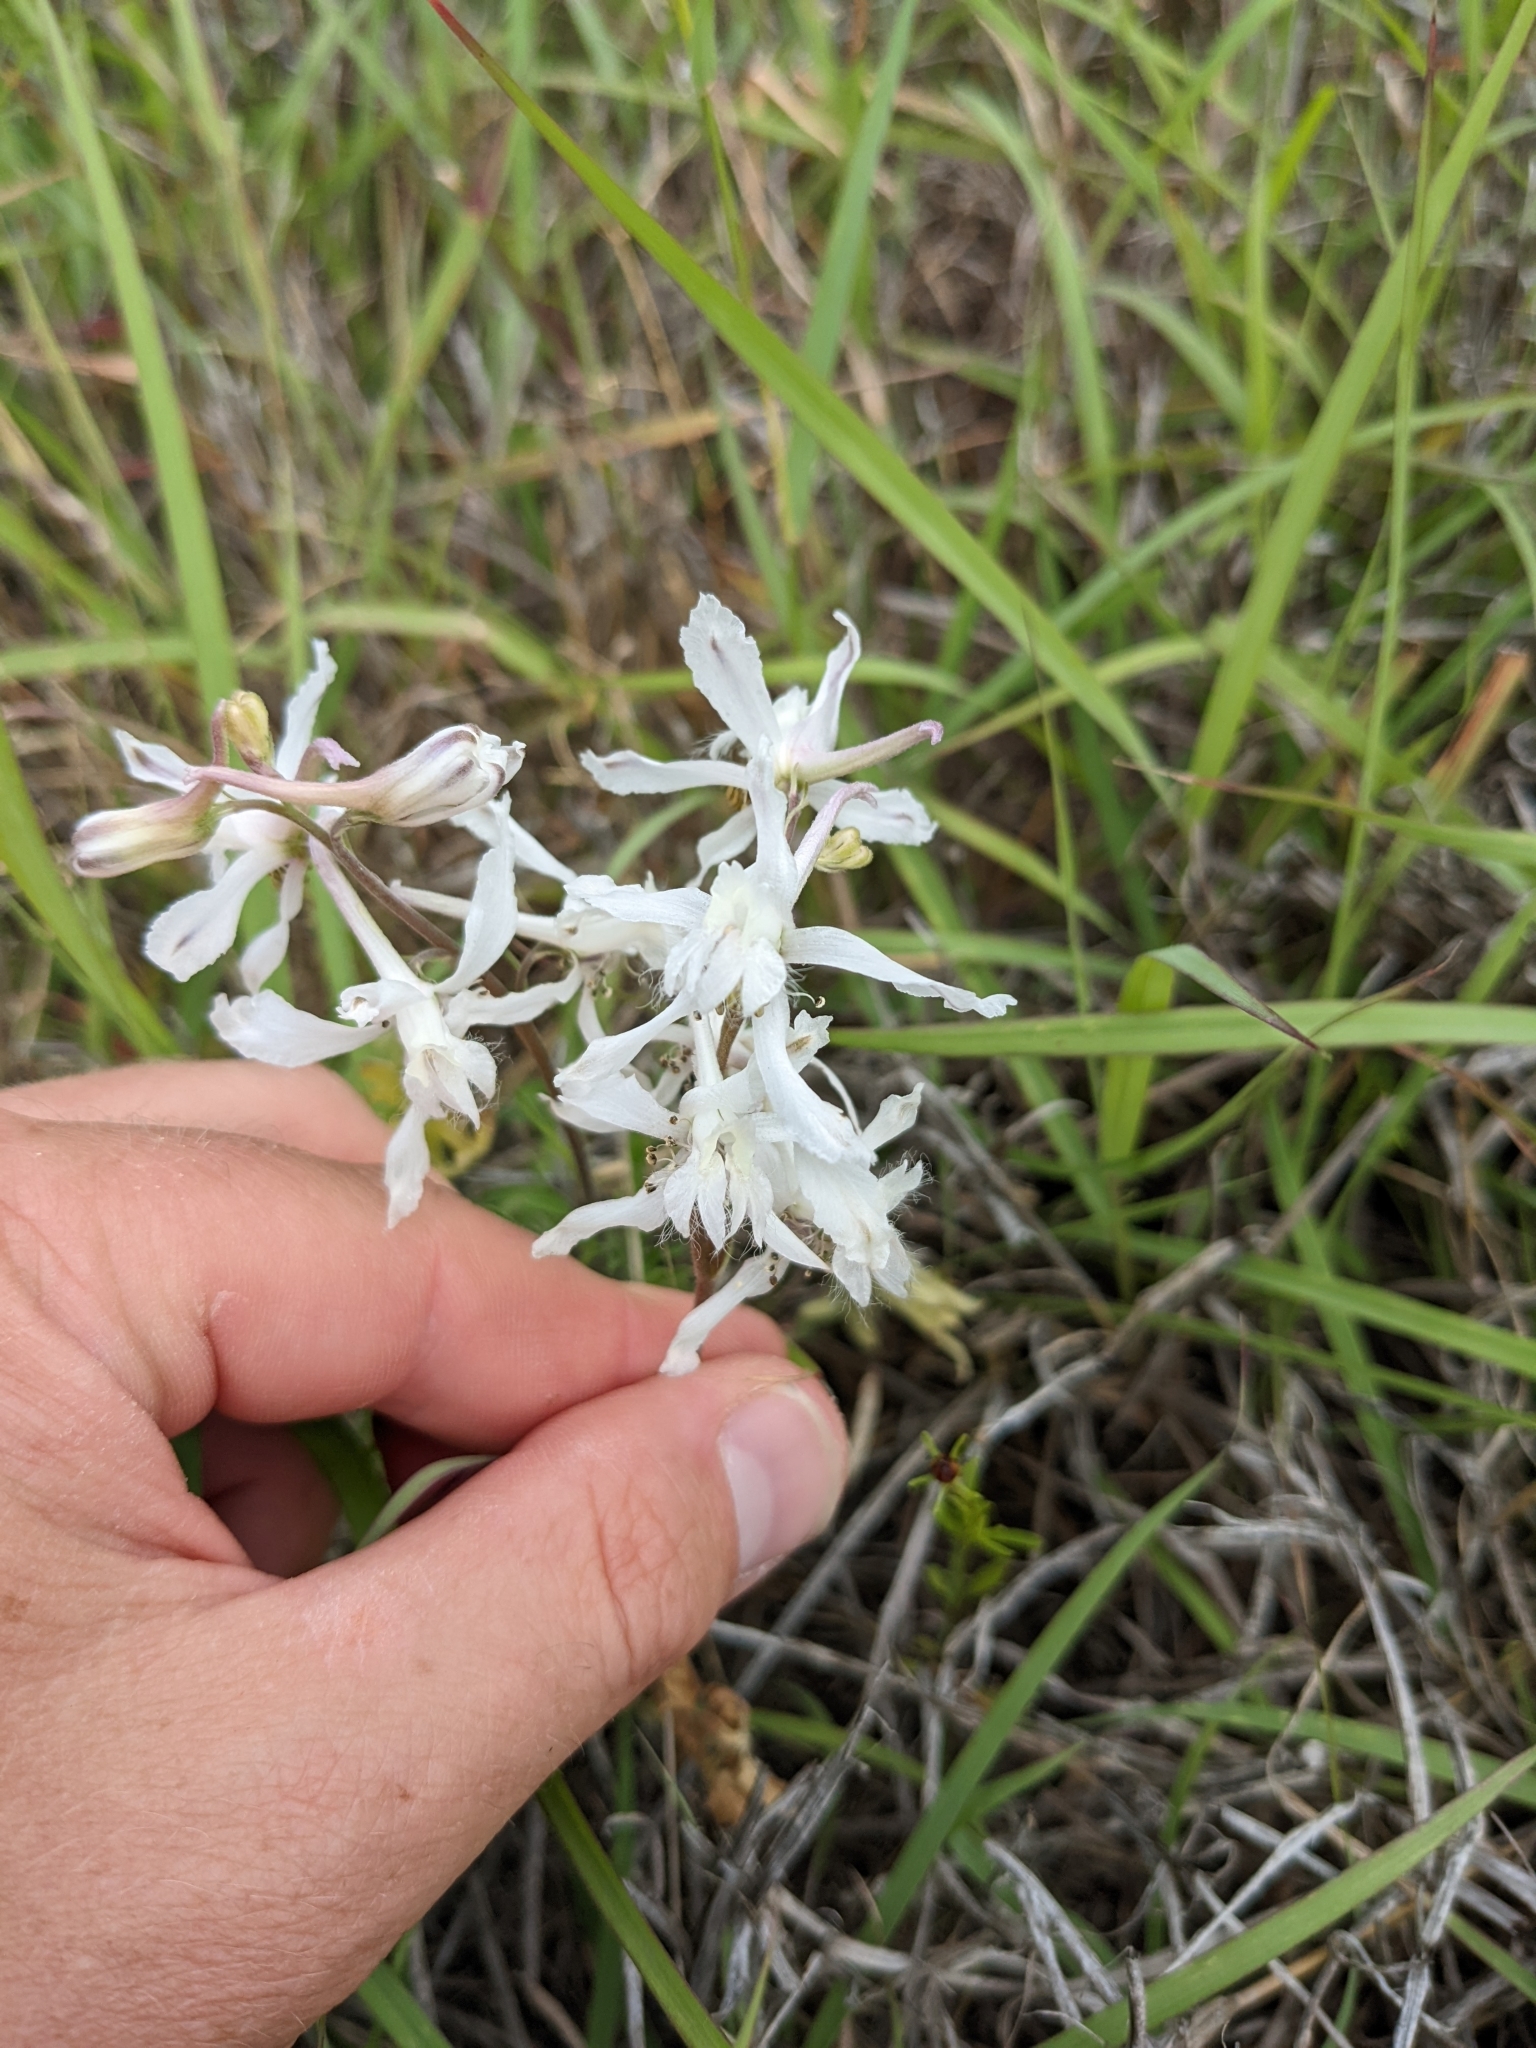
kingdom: Plantae
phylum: Tracheophyta
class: Magnoliopsida
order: Ranunculales
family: Ranunculaceae
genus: Delphinium
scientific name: Delphinium carolinianum
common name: Carolina larkspur
